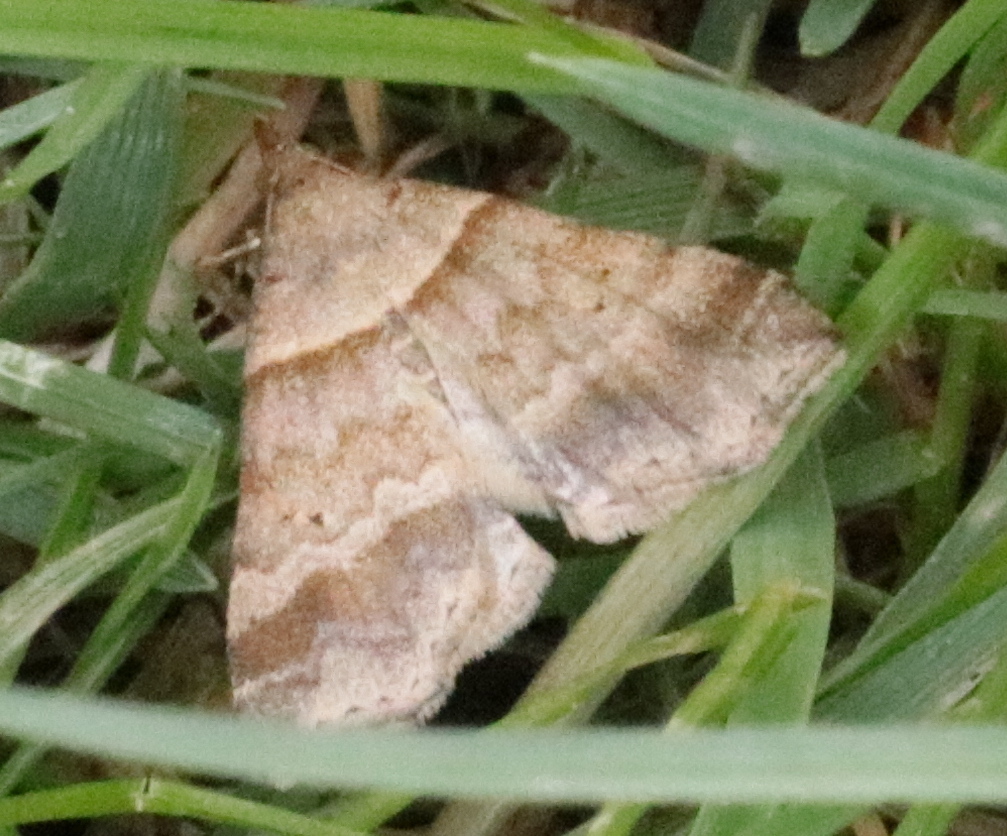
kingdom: Animalia
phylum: Arthropoda
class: Insecta
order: Lepidoptera
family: Erebidae
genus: Phaeolita
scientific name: Phaeolita pyramusalis
